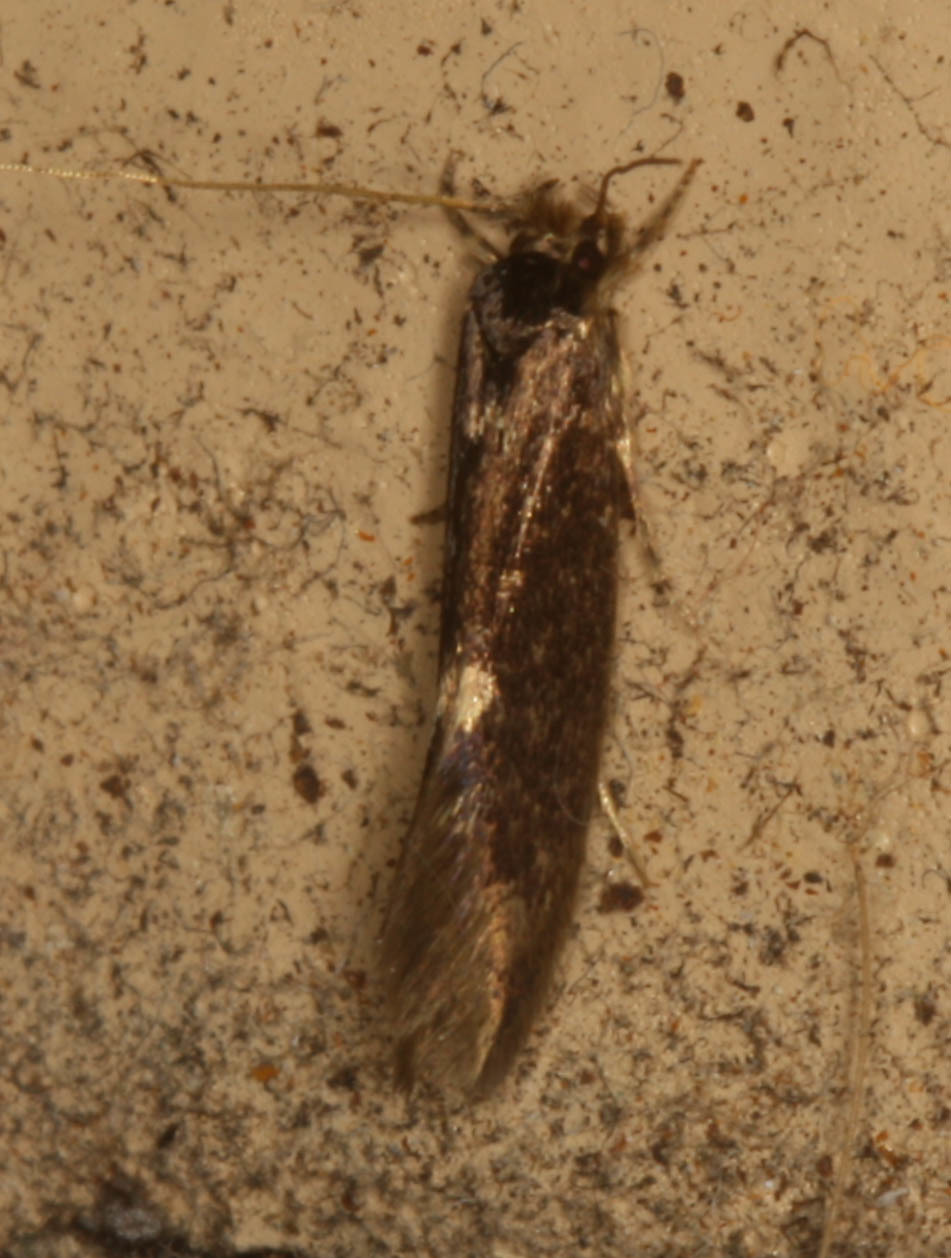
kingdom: Animalia
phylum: Arthropoda
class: Insecta
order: Lepidoptera
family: Tineidae
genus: Opogona
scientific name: Opogona omoscopa
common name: Moth
